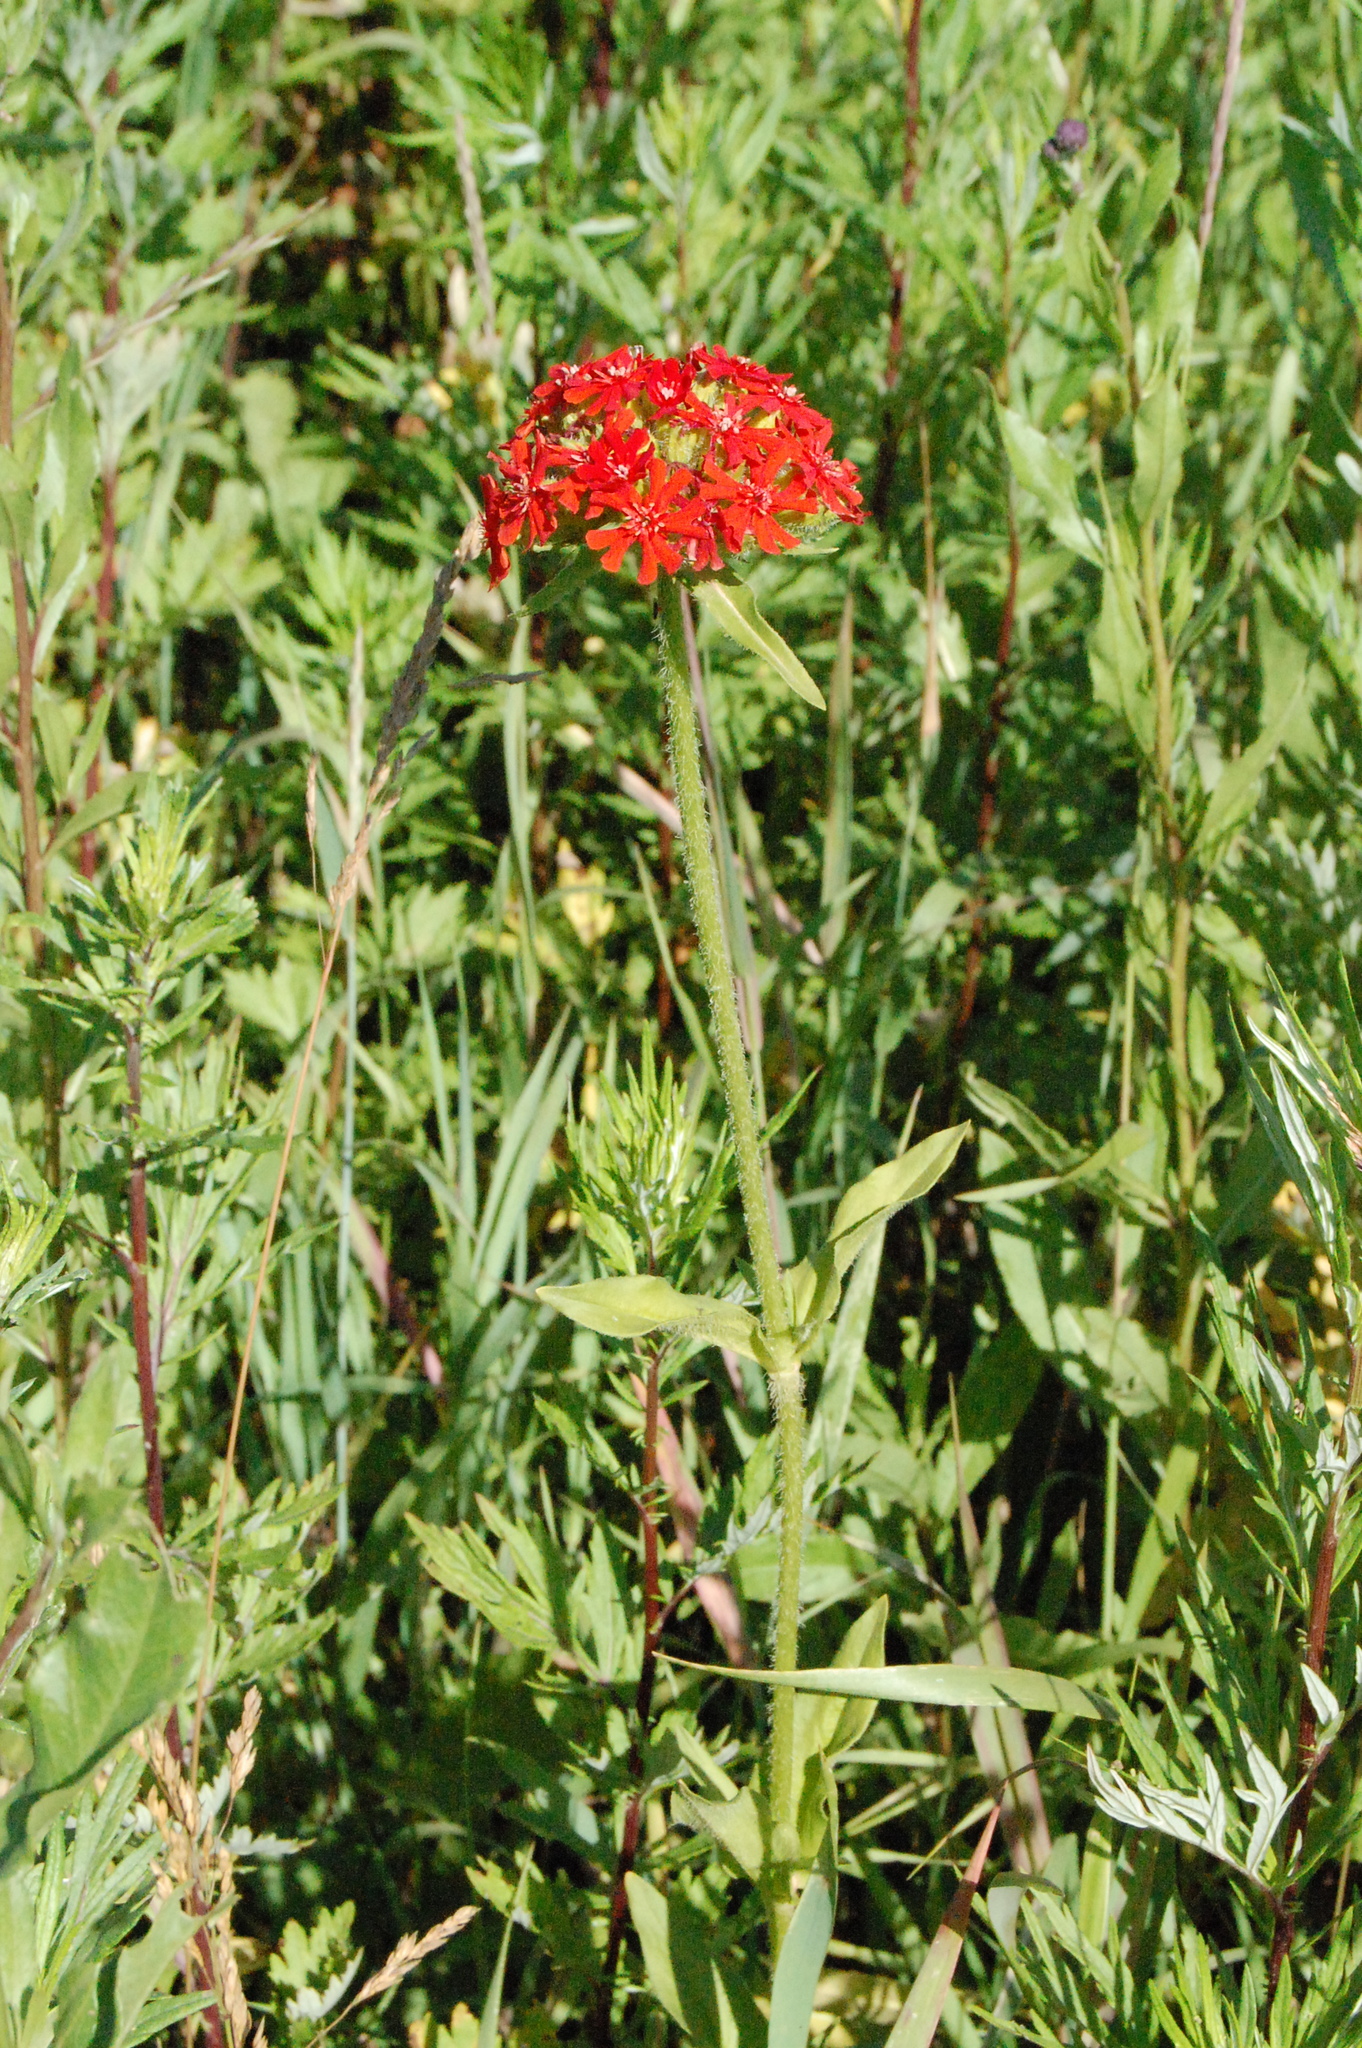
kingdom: Plantae
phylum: Tracheophyta
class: Magnoliopsida
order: Caryophyllales
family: Caryophyllaceae
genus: Silene
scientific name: Silene chalcedonica
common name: Maltese-cross
